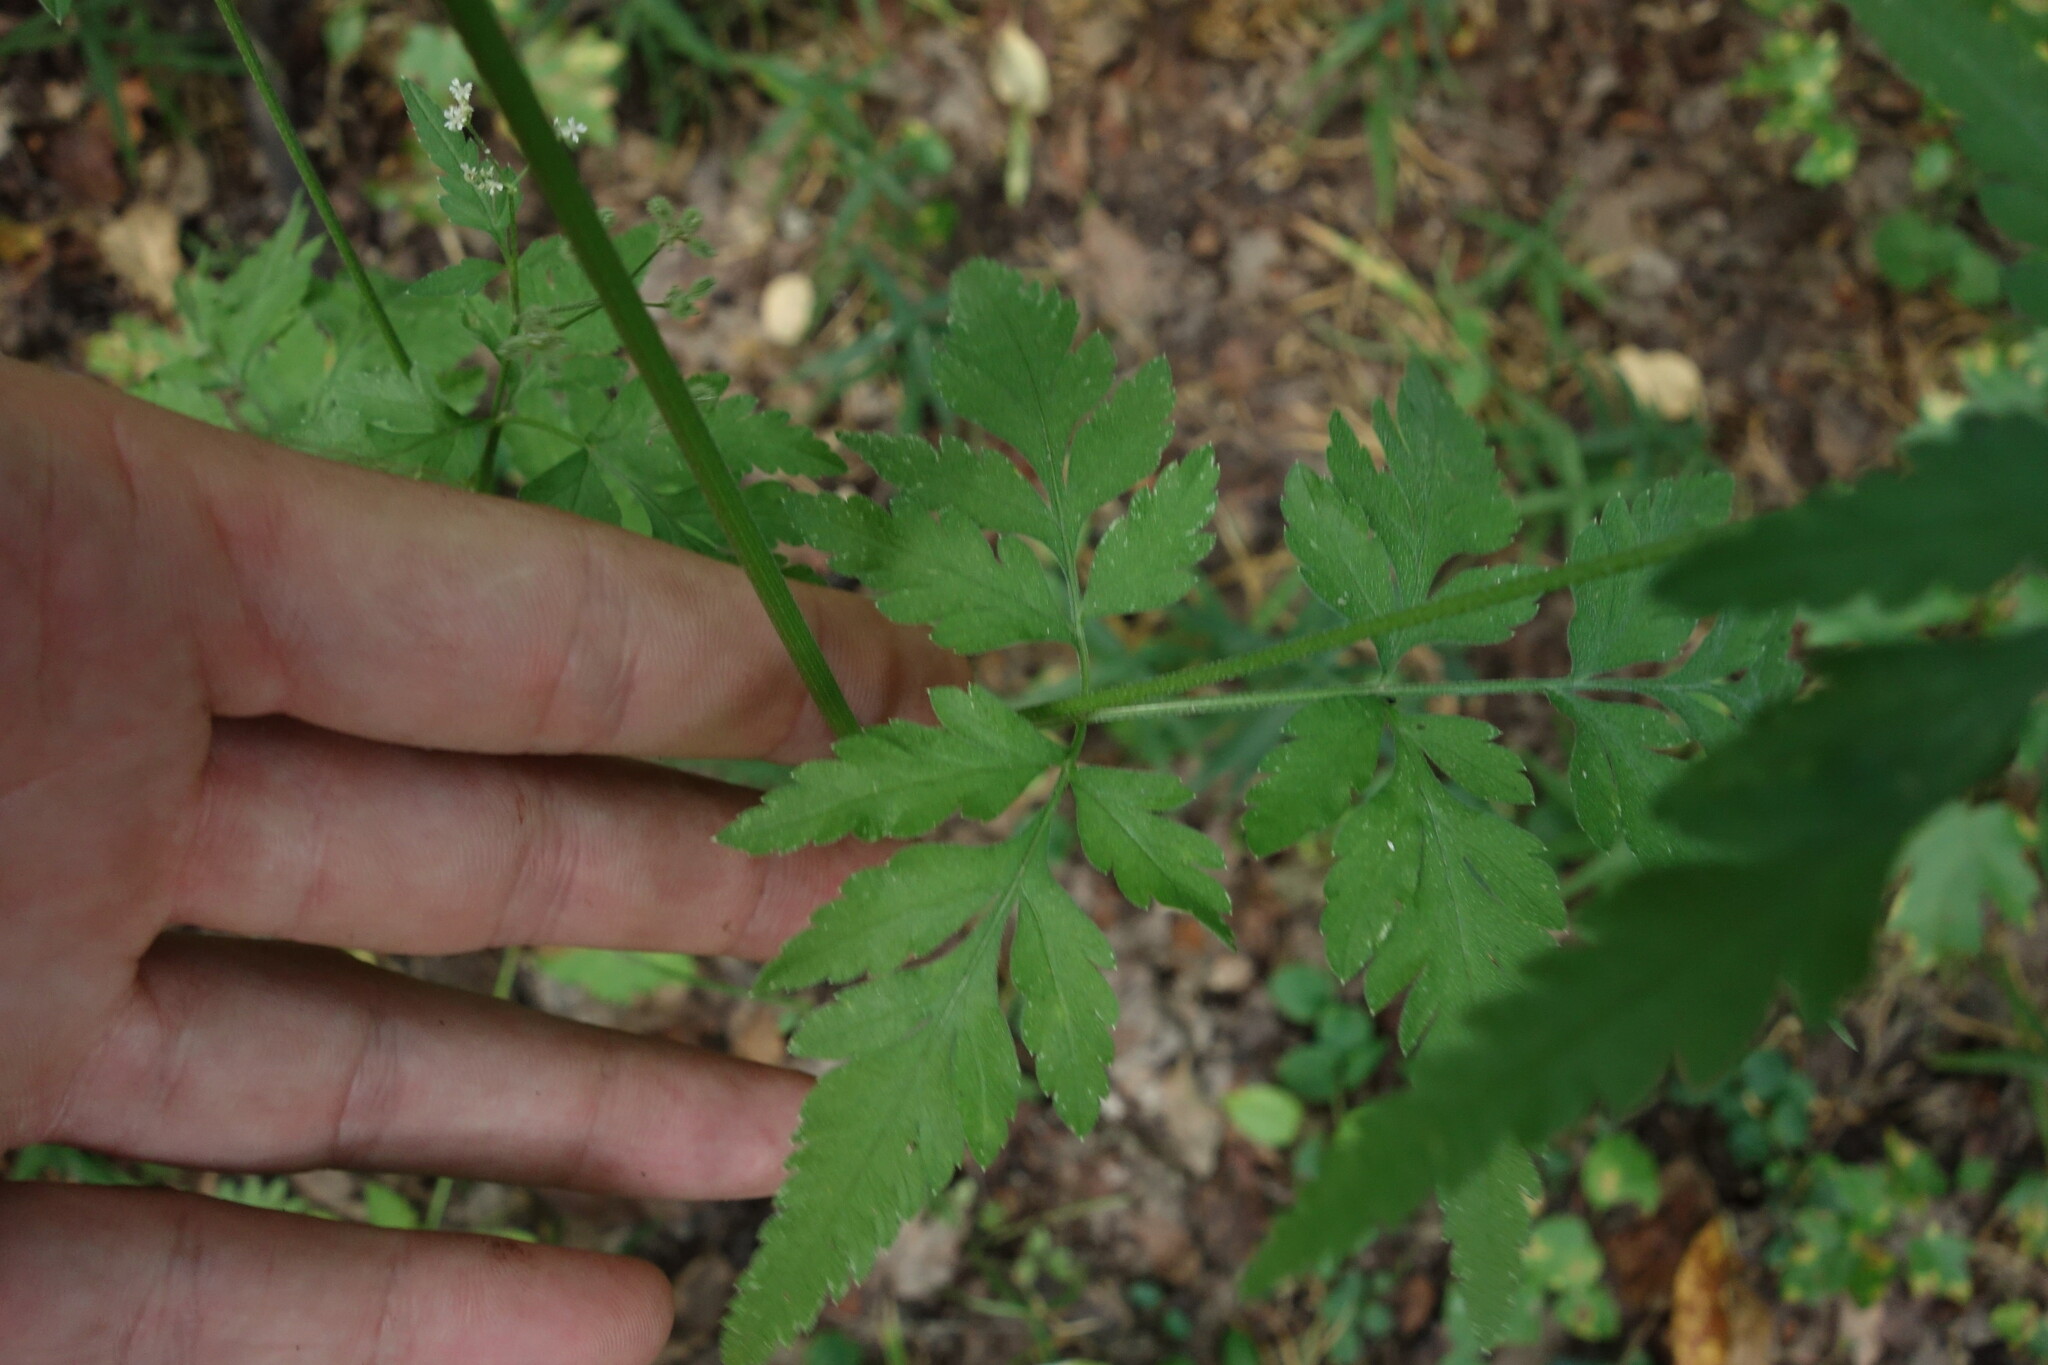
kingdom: Plantae
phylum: Tracheophyta
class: Magnoliopsida
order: Apiales
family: Apiaceae
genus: Torilis
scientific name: Torilis japonica
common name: Upright hedge-parsley
